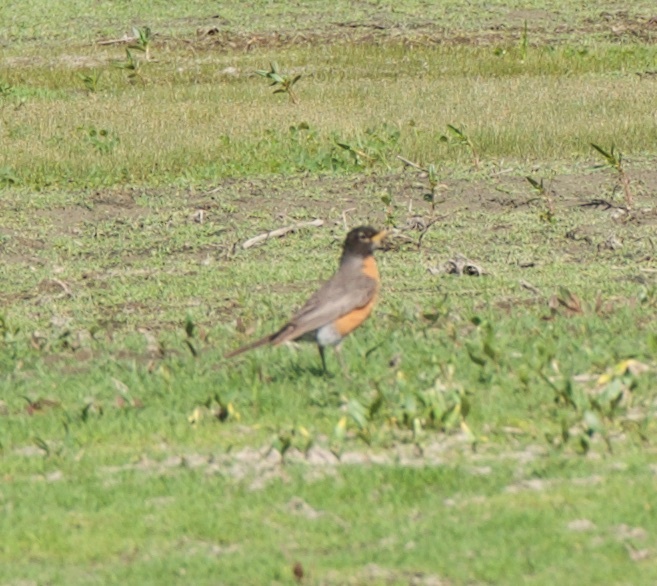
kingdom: Animalia
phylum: Chordata
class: Aves
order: Passeriformes
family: Turdidae
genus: Turdus
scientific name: Turdus migratorius
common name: American robin
